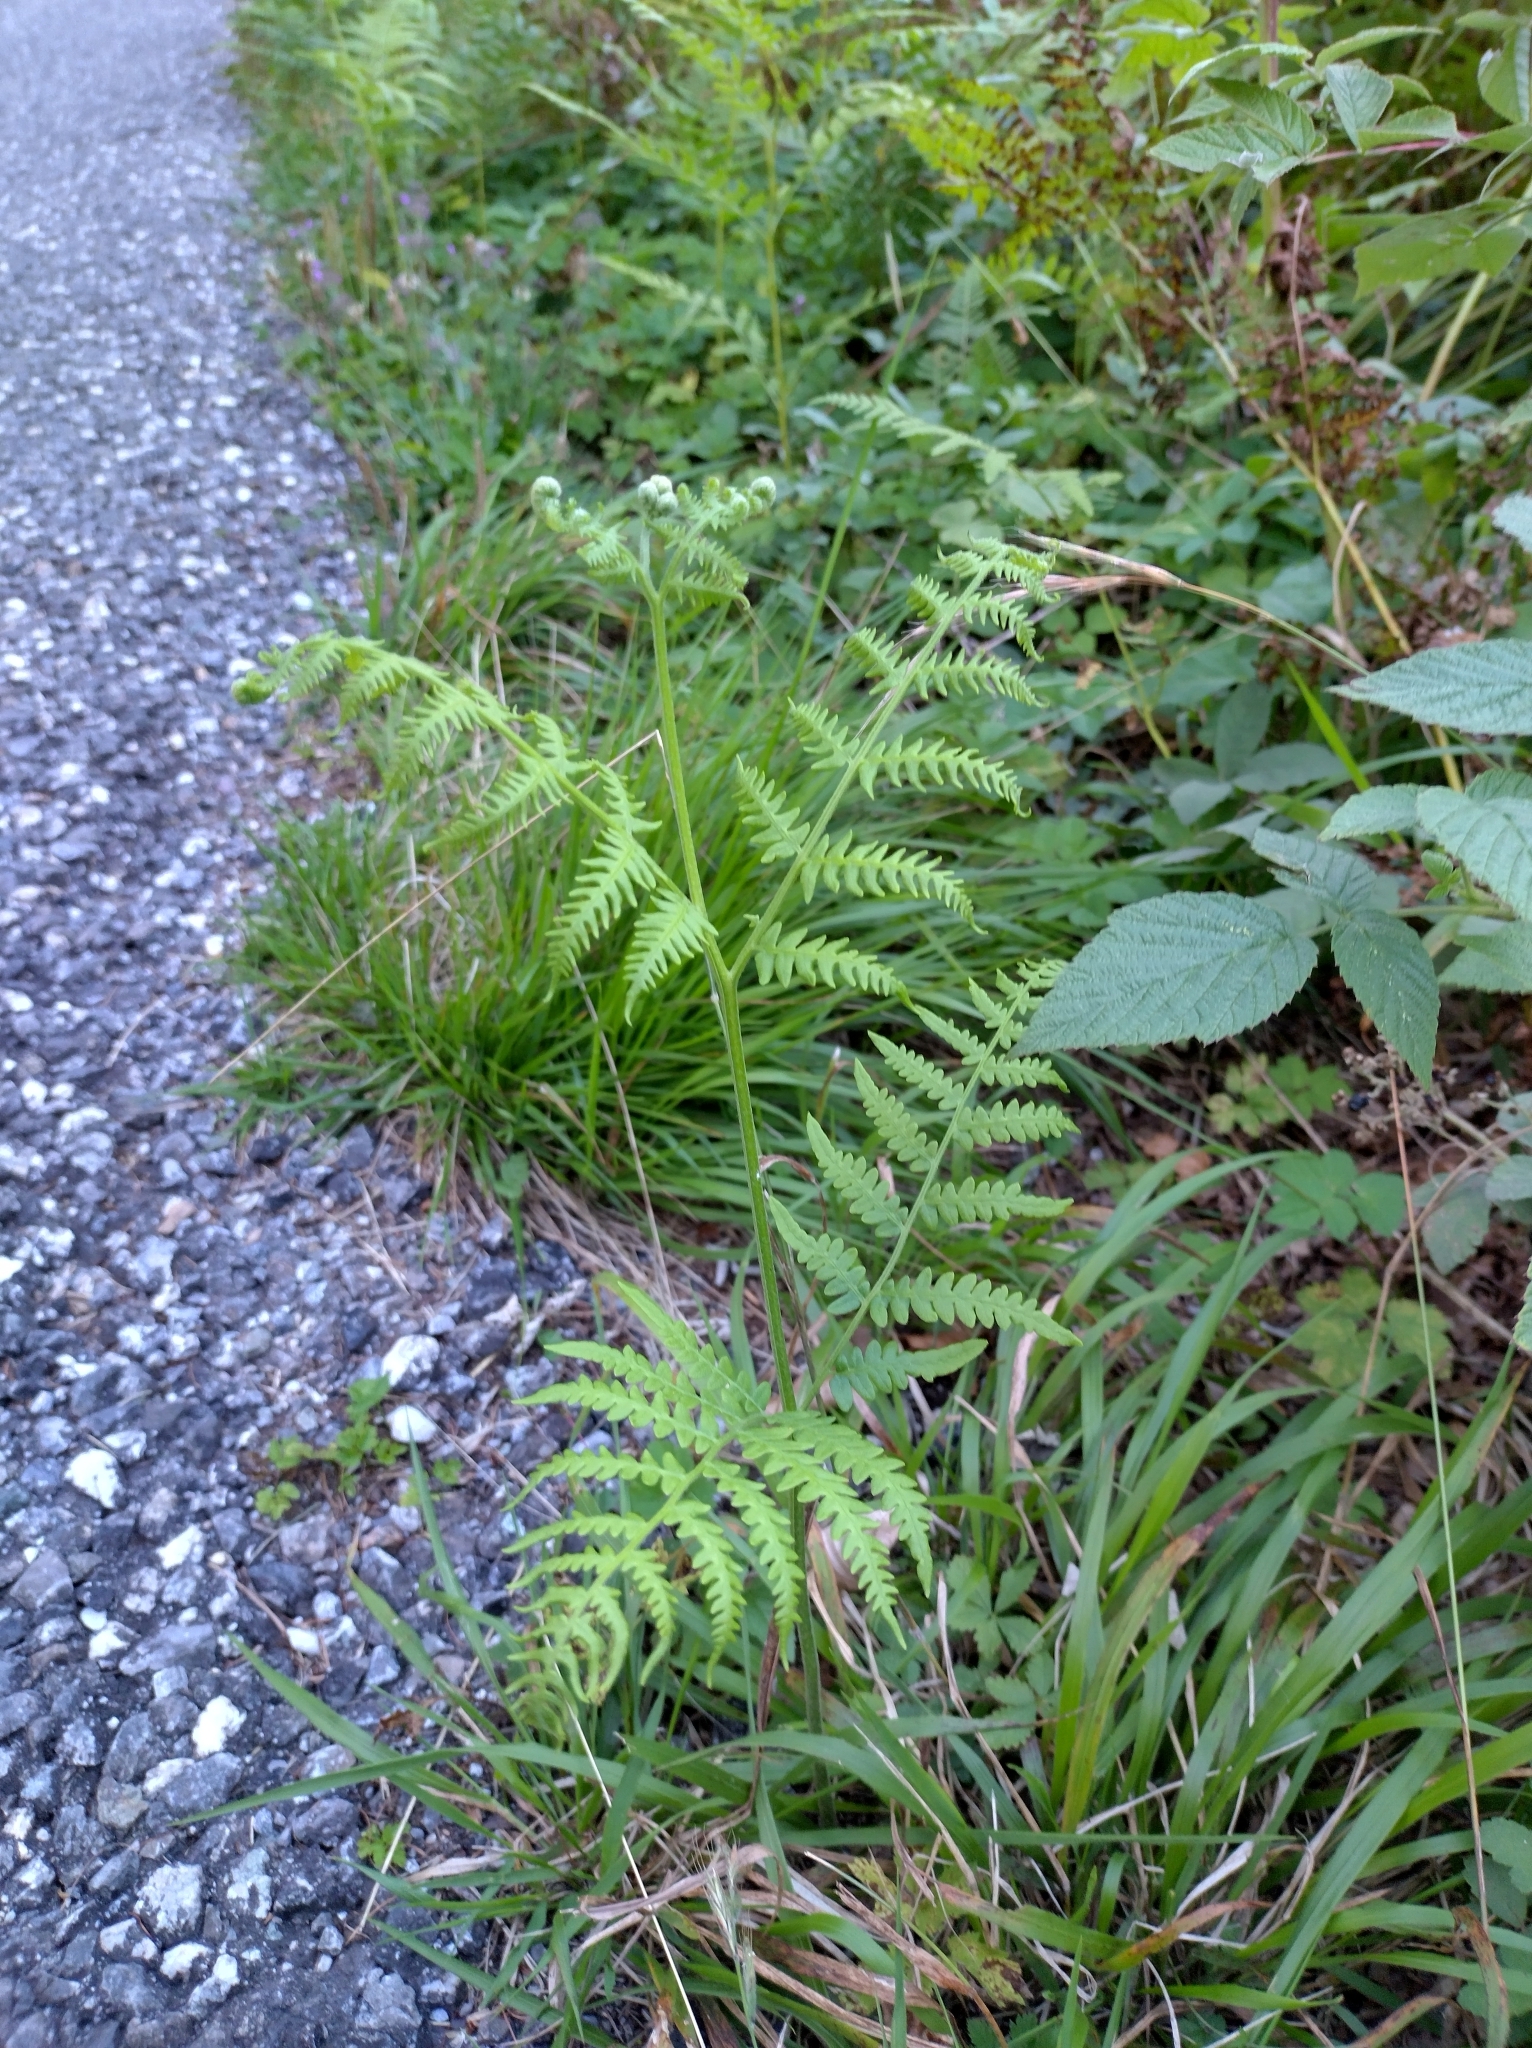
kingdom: Plantae
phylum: Tracheophyta
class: Polypodiopsida
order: Polypodiales
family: Dennstaedtiaceae
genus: Pteridium
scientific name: Pteridium aquilinum
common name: Bracken
